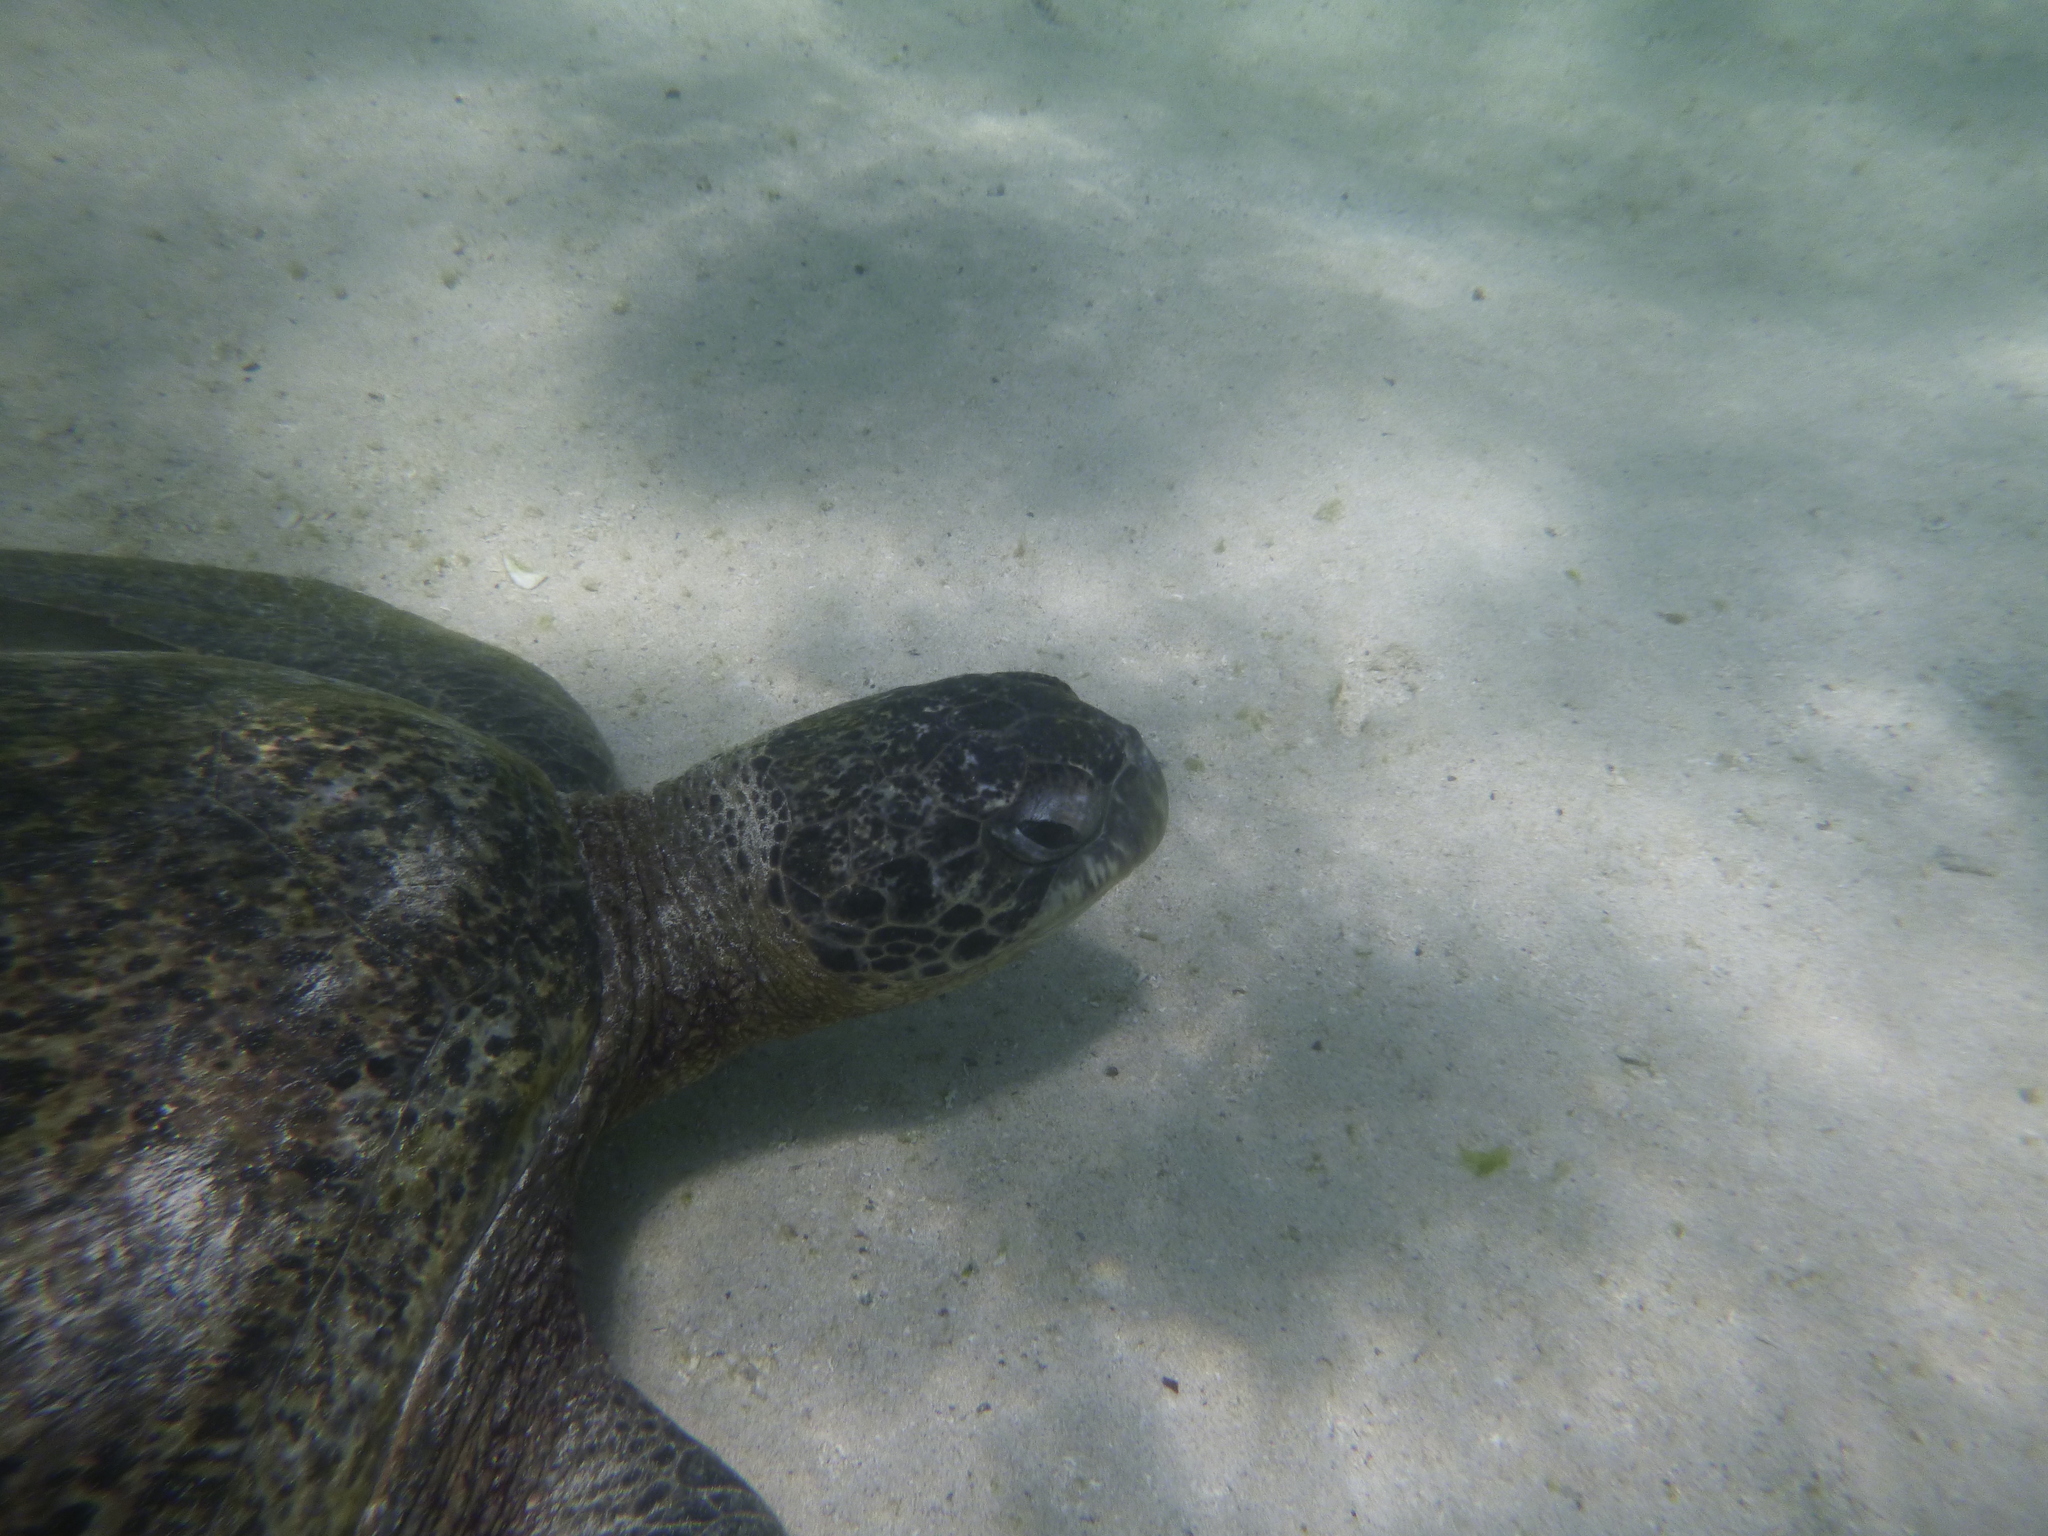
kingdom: Animalia
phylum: Chordata
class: Testudines
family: Cheloniidae
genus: Chelonia
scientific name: Chelonia mydas
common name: Green turtle
